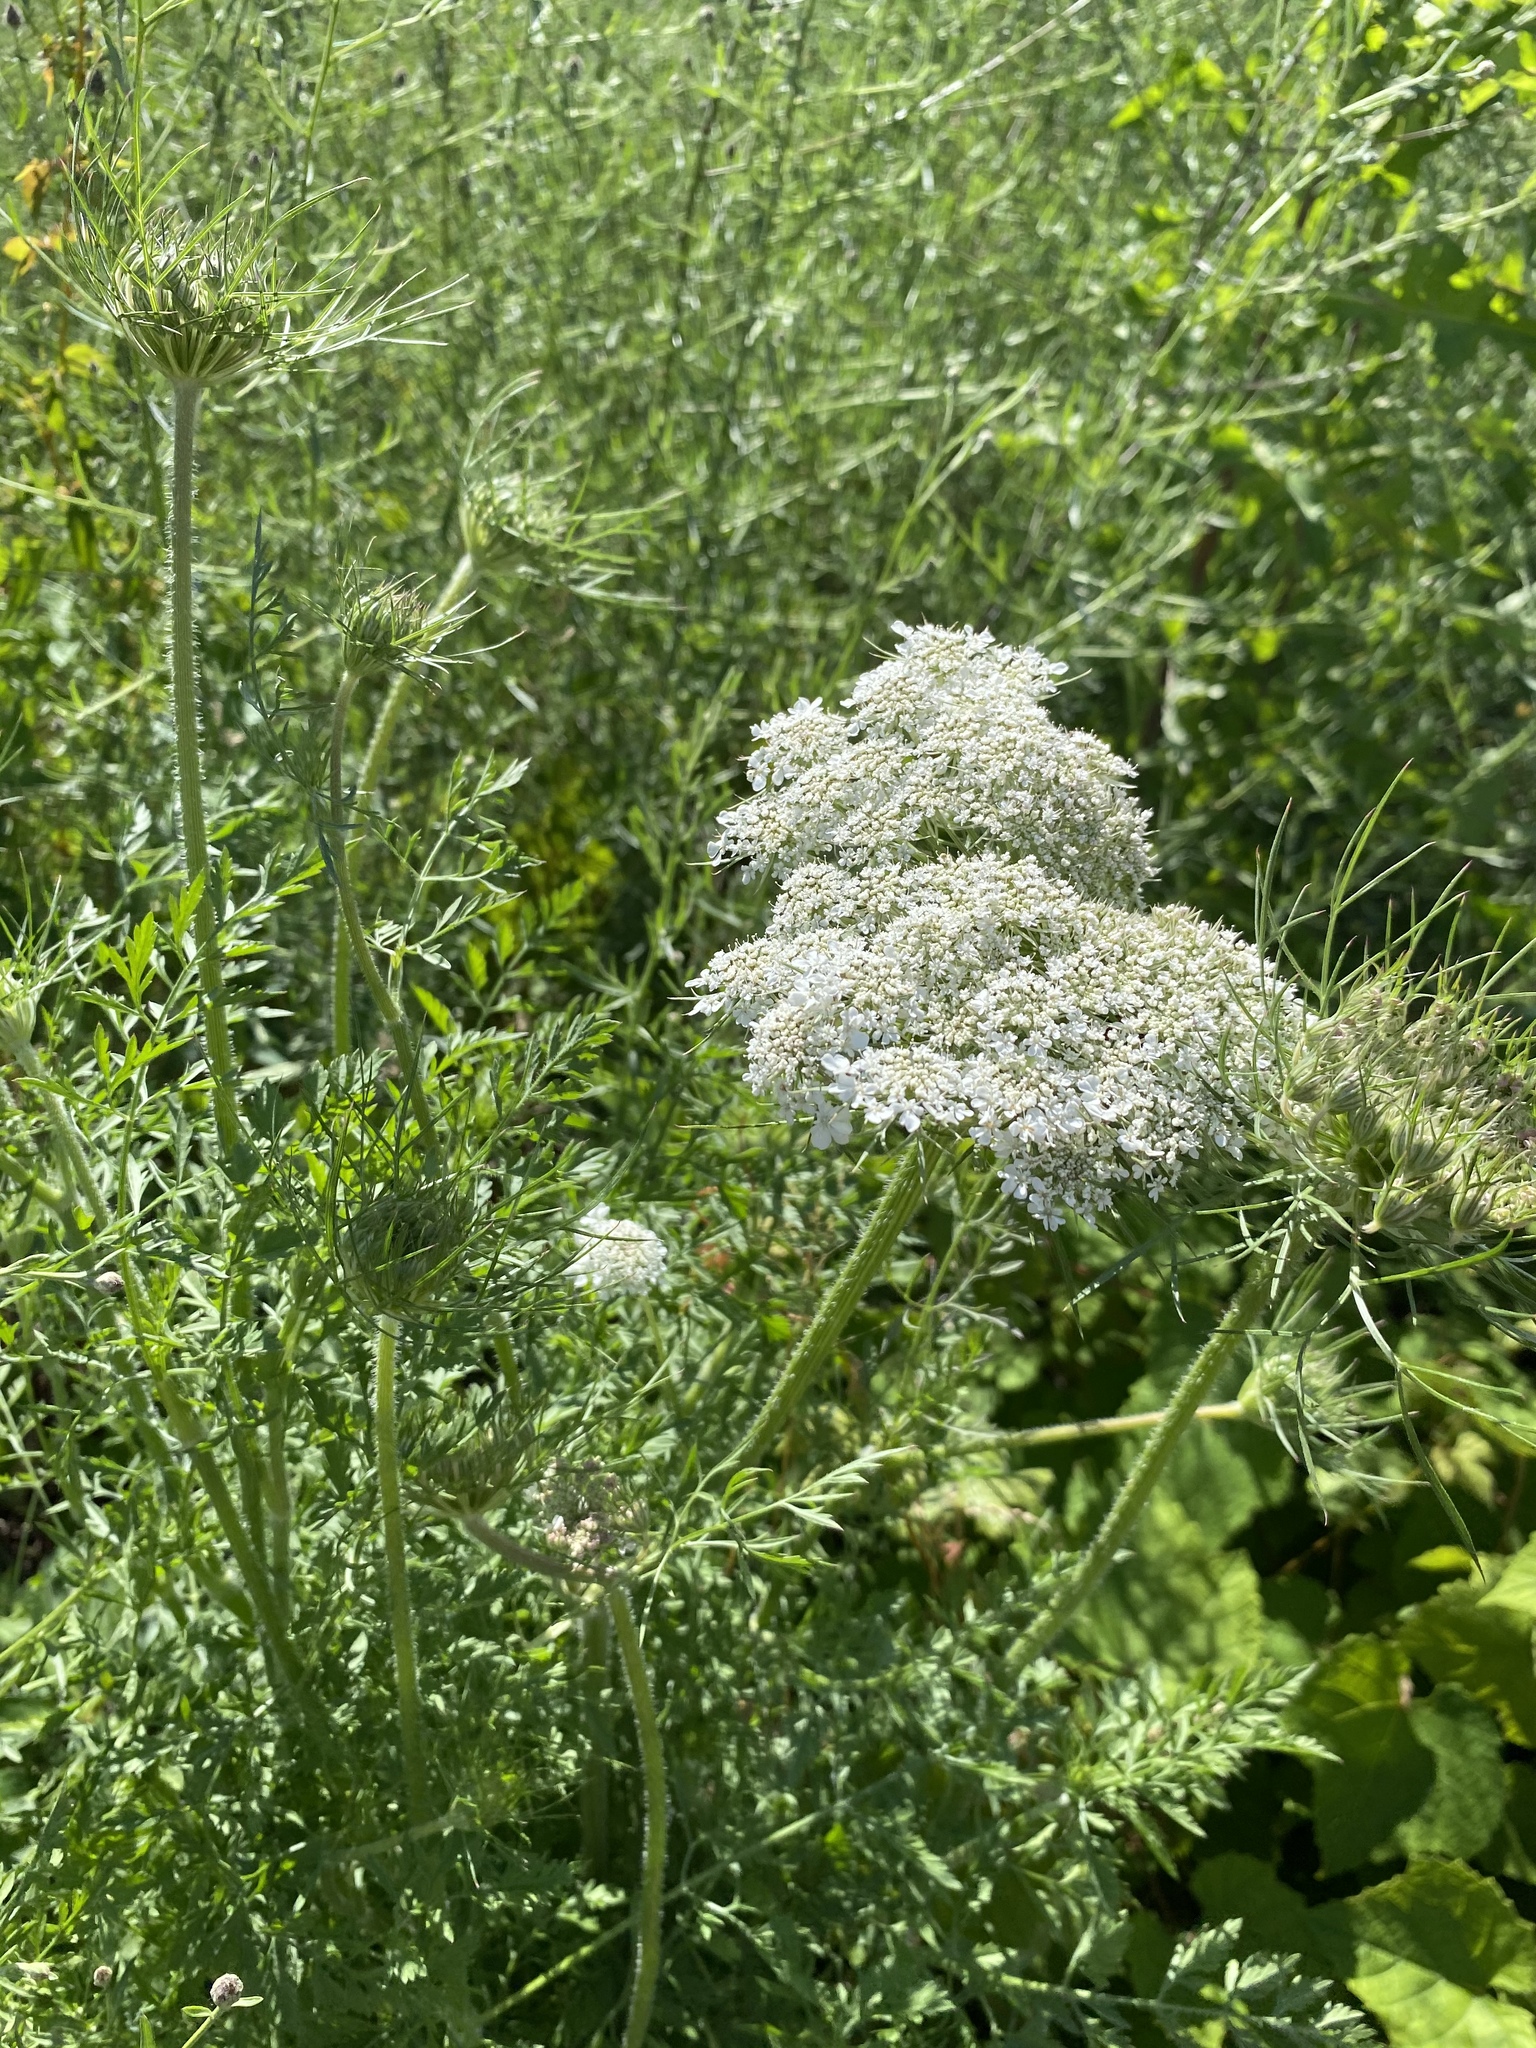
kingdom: Plantae
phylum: Tracheophyta
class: Magnoliopsida
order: Apiales
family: Apiaceae
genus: Daucus
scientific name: Daucus carota
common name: Wild carrot
